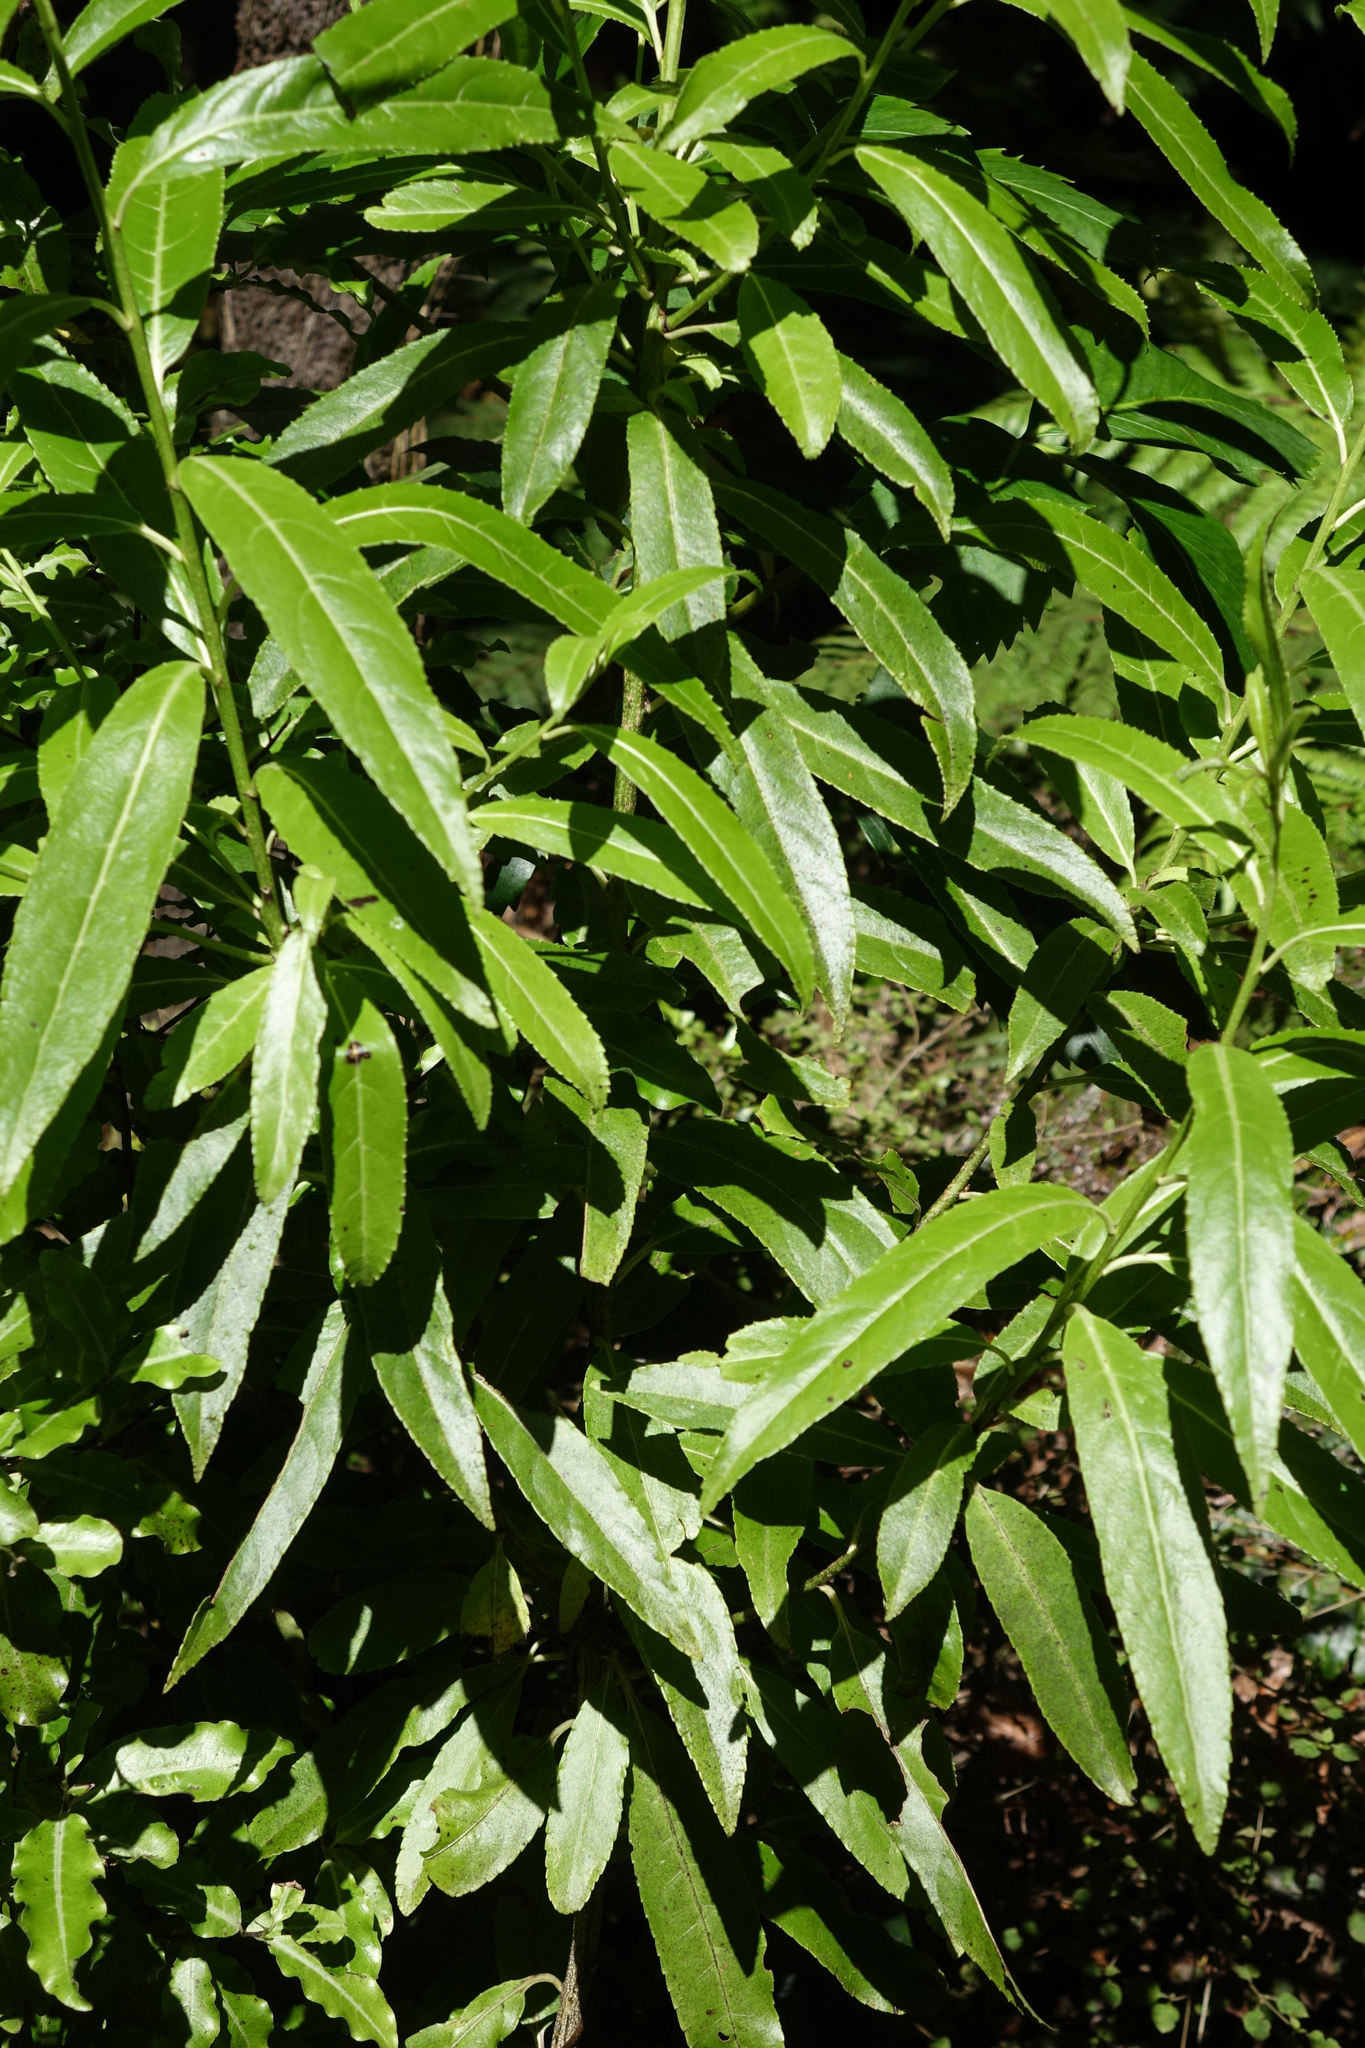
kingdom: Plantae
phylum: Tracheophyta
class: Magnoliopsida
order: Malpighiales
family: Violaceae
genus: Melicytus
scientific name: Melicytus lanceolatus
